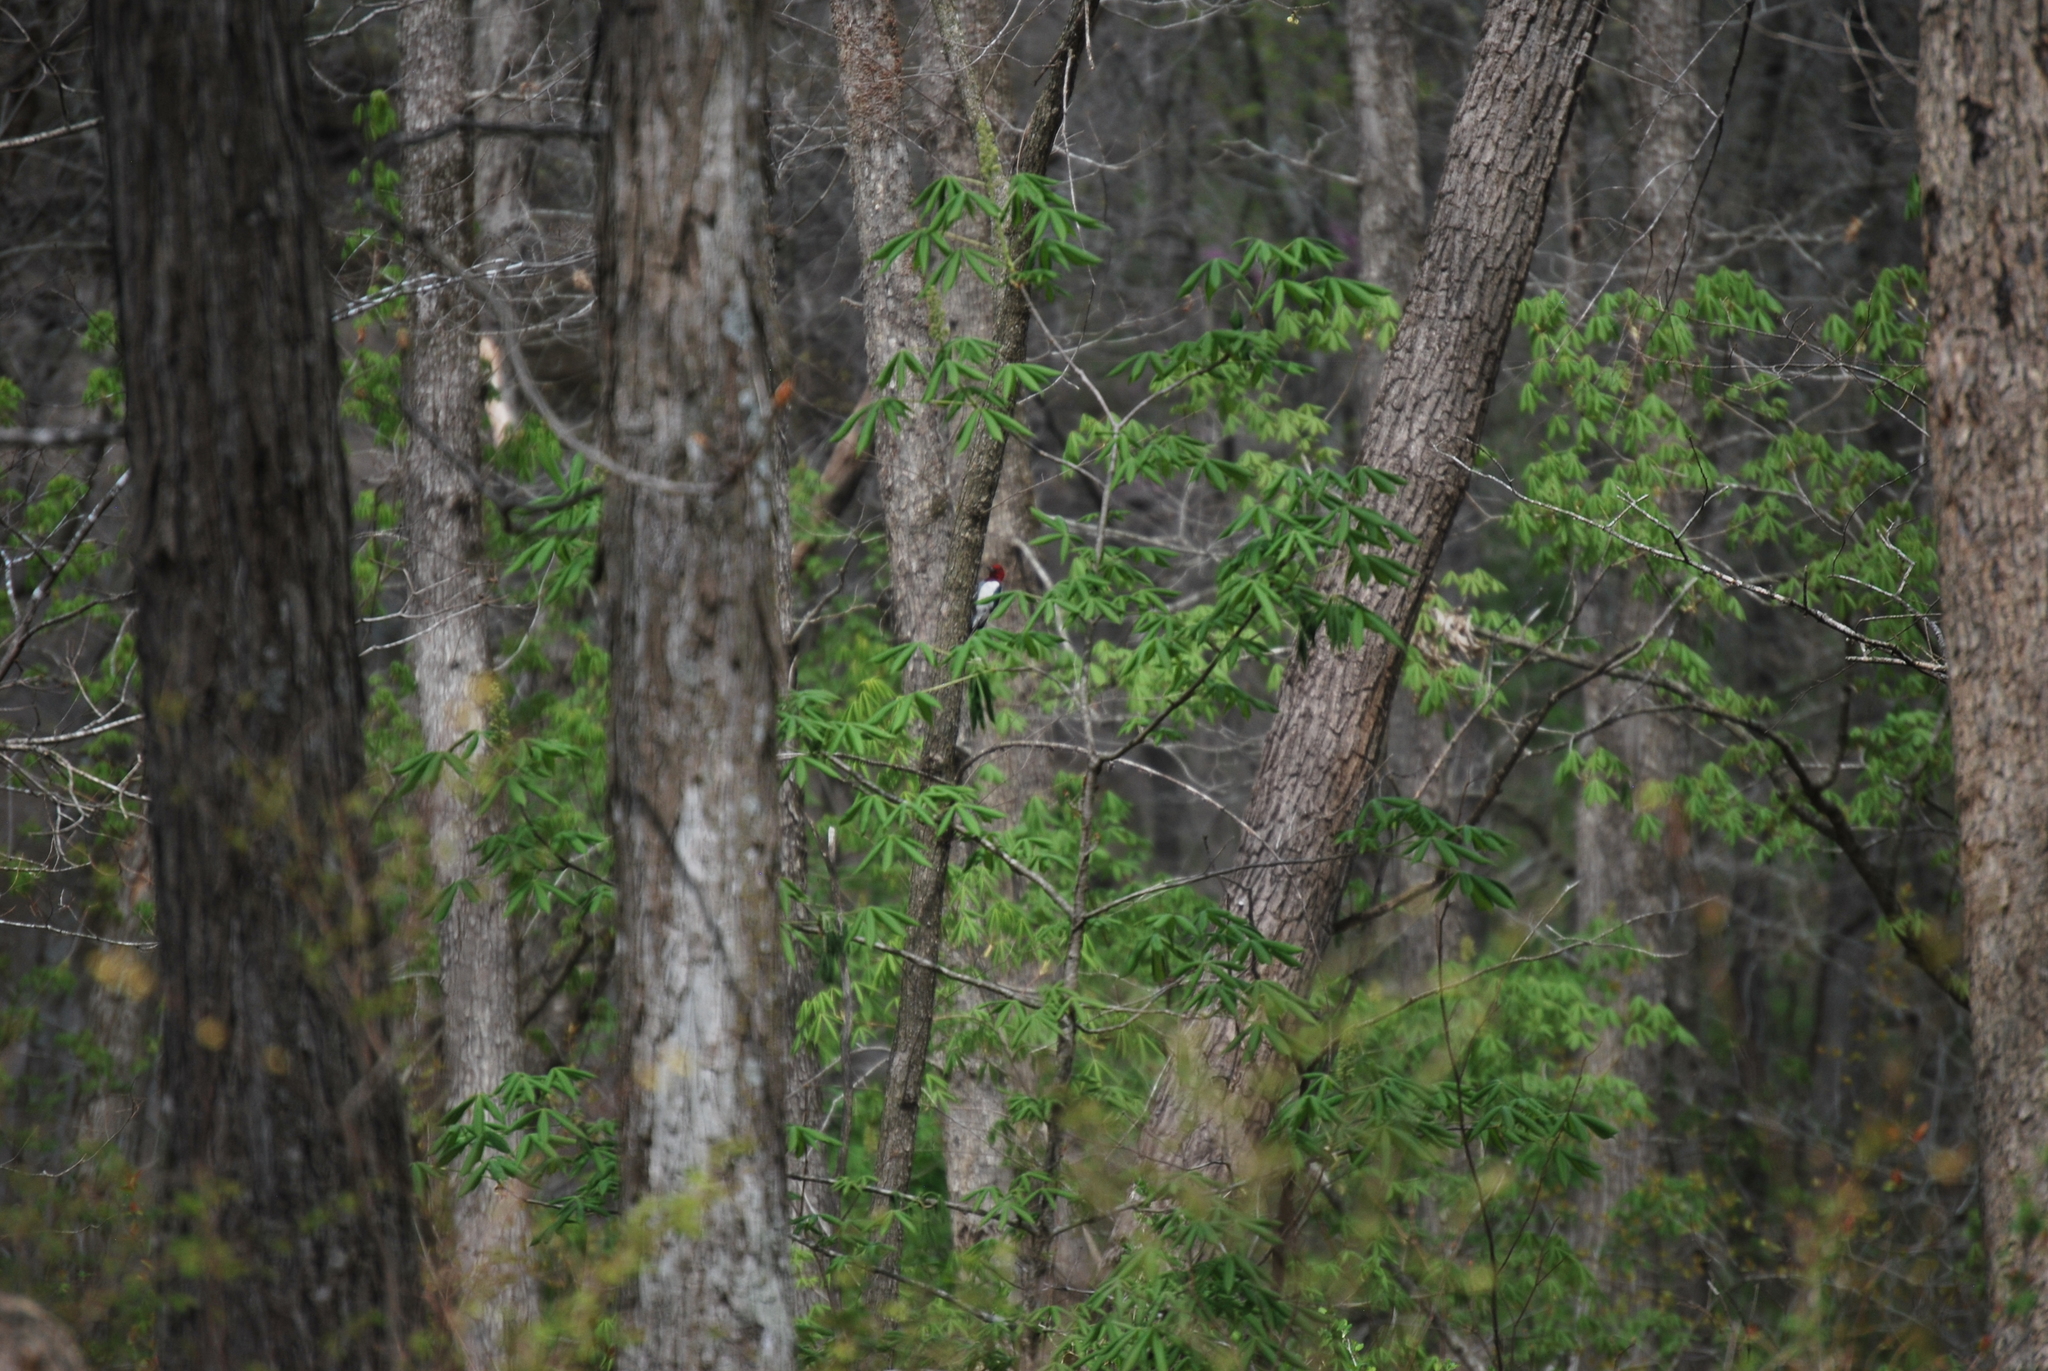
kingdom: Animalia
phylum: Chordata
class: Aves
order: Piciformes
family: Picidae
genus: Melanerpes
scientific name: Melanerpes erythrocephalus
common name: Red-headed woodpecker
